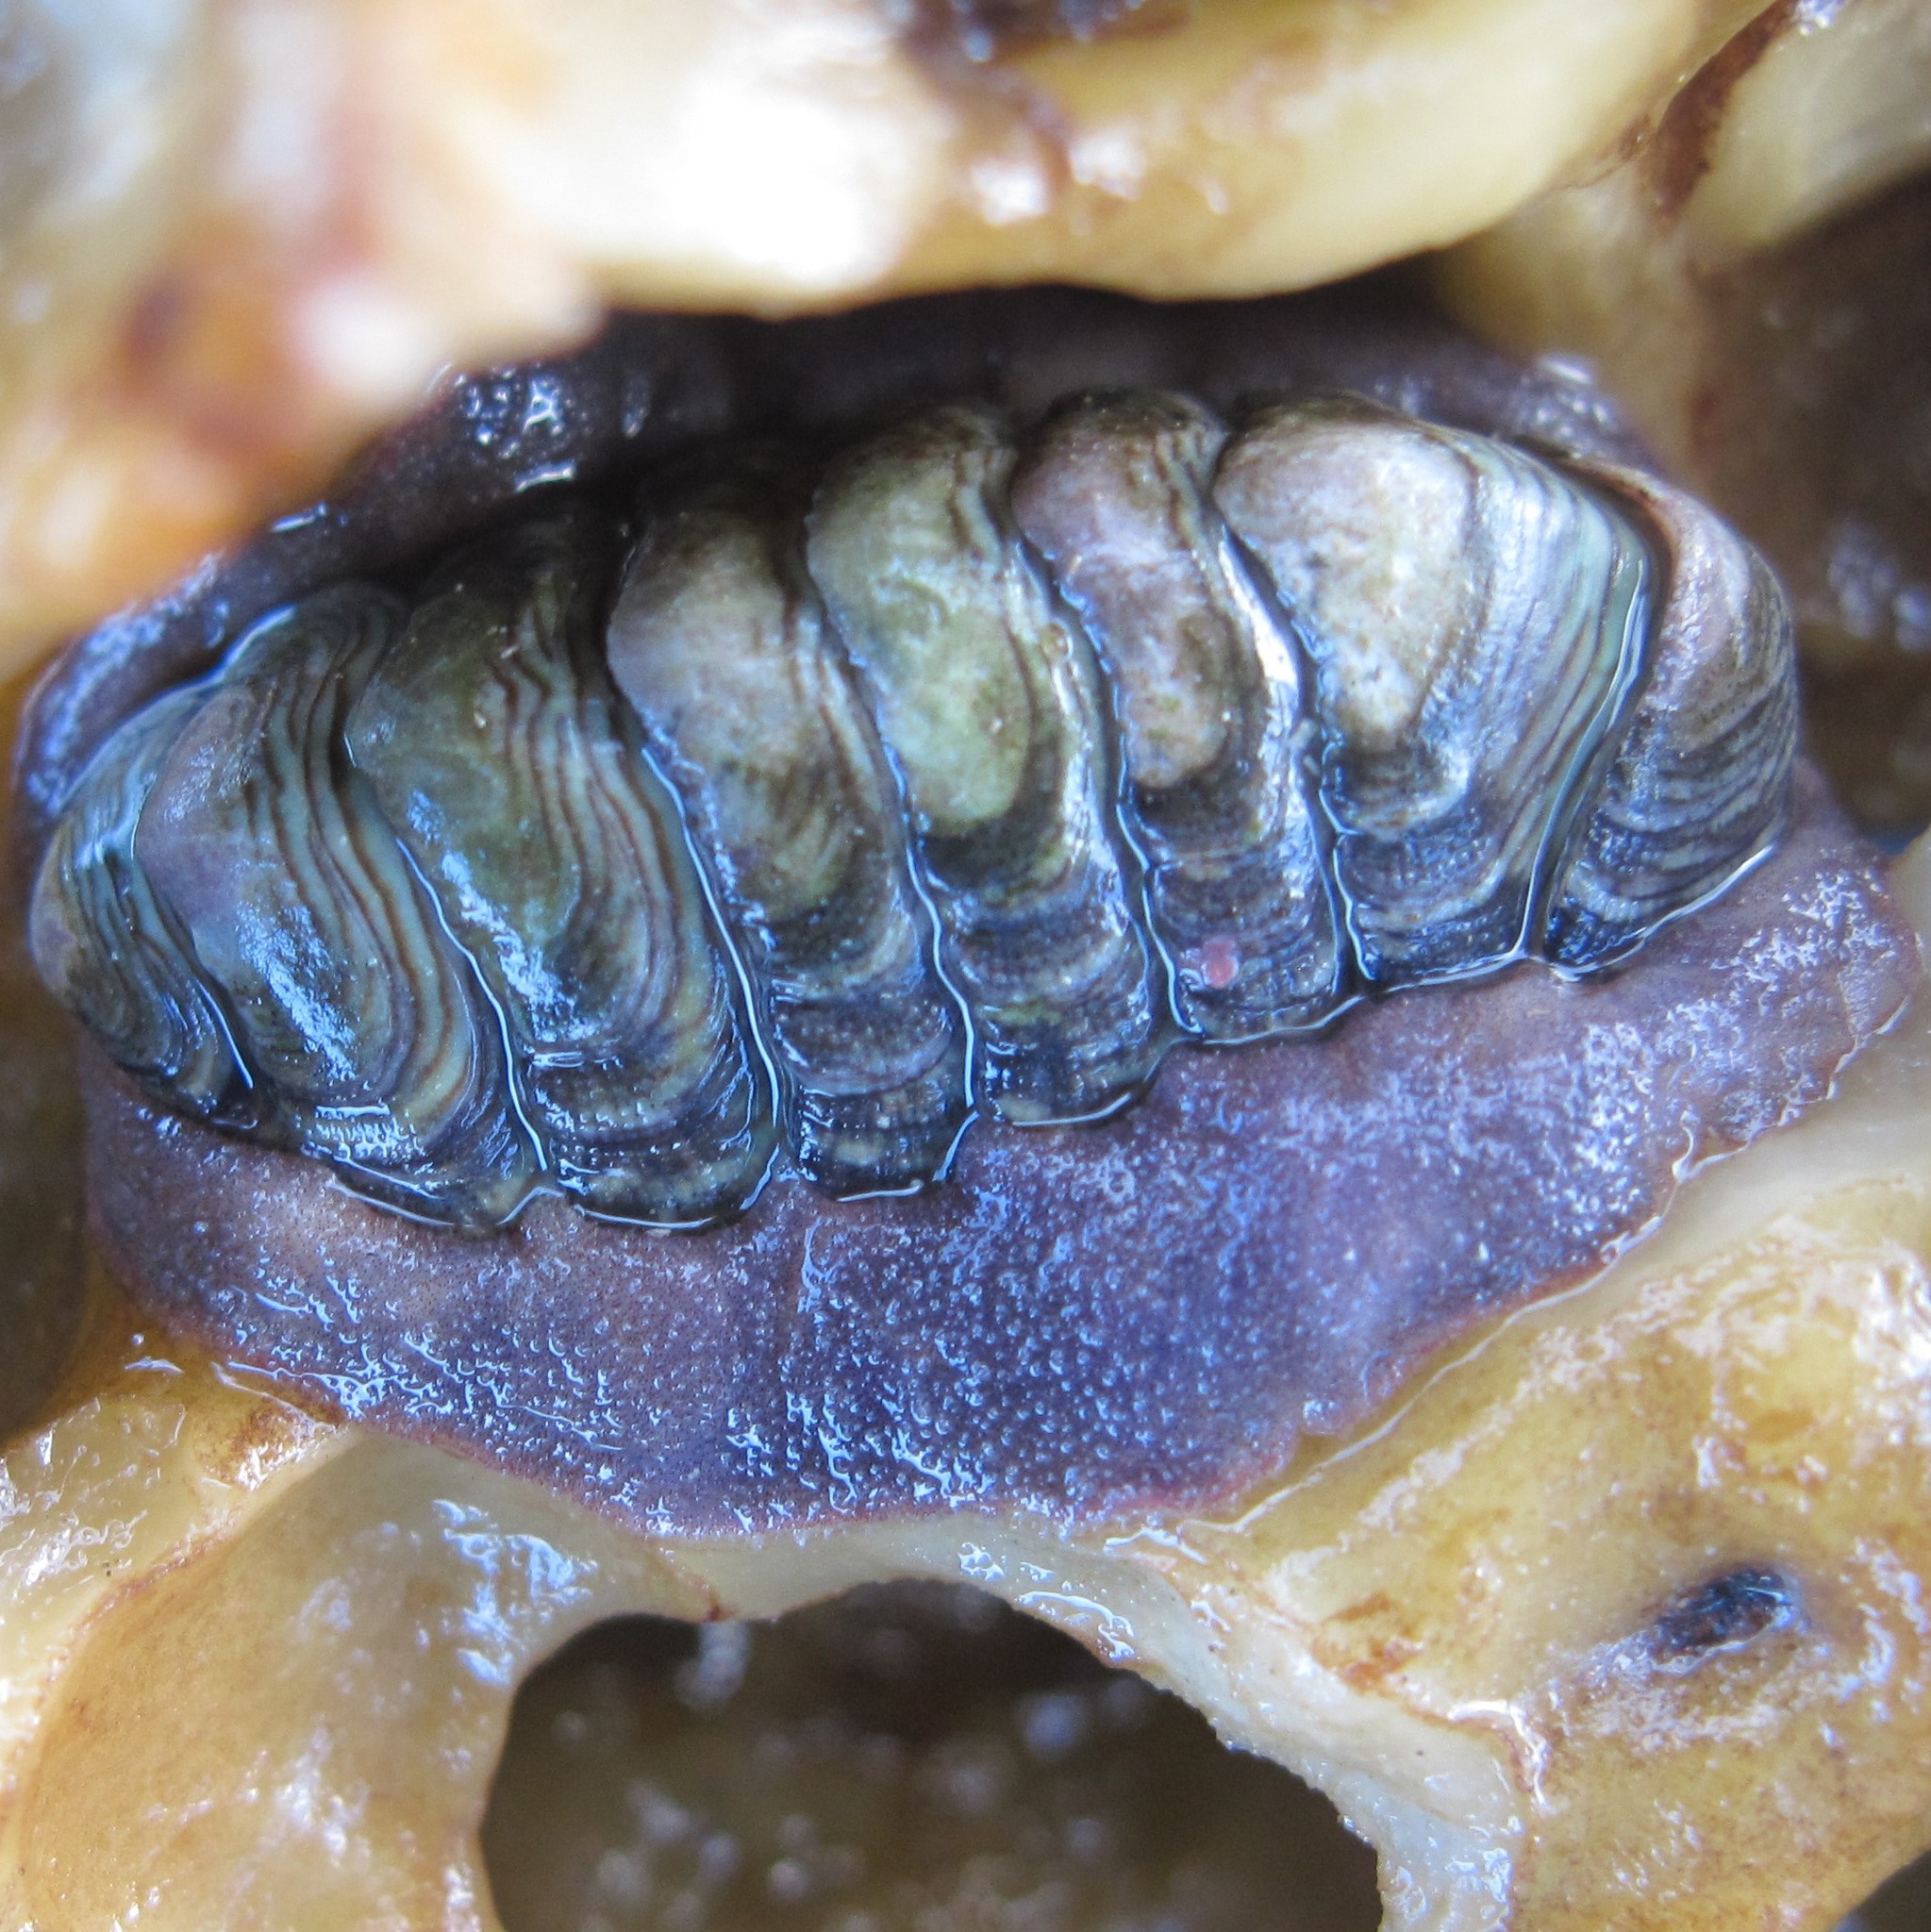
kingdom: Animalia
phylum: Mollusca
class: Polyplacophora
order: Chitonida
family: Chitonidae
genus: Onithochiton
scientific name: Onithochiton neglectus
